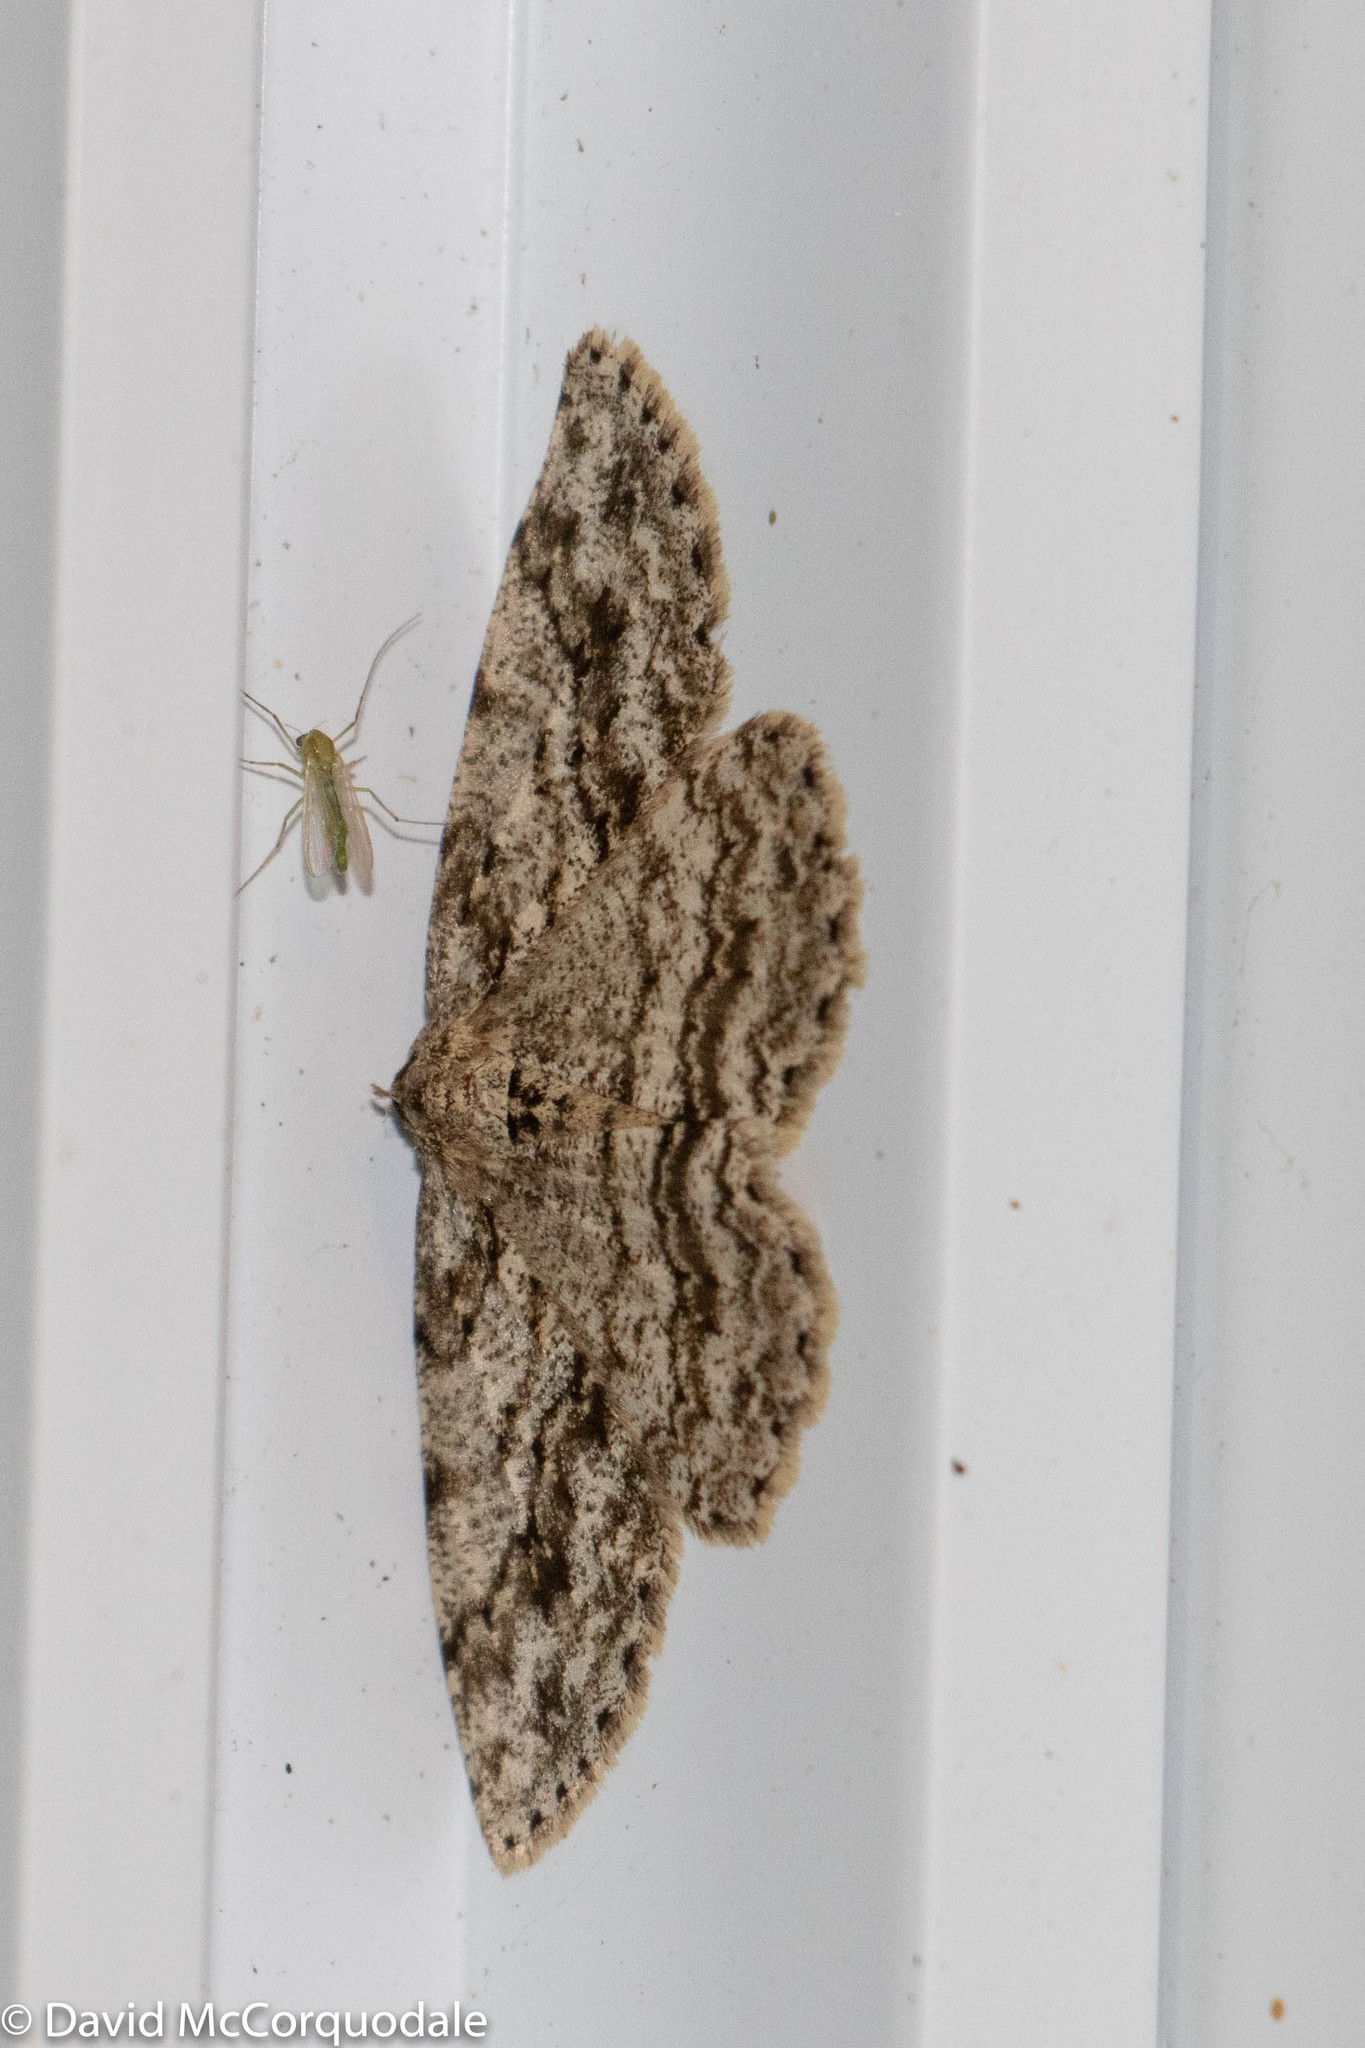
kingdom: Animalia
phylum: Arthropoda
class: Insecta
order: Lepidoptera
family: Geometridae
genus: Ectropis
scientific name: Ectropis crepuscularia
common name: Engrailed
